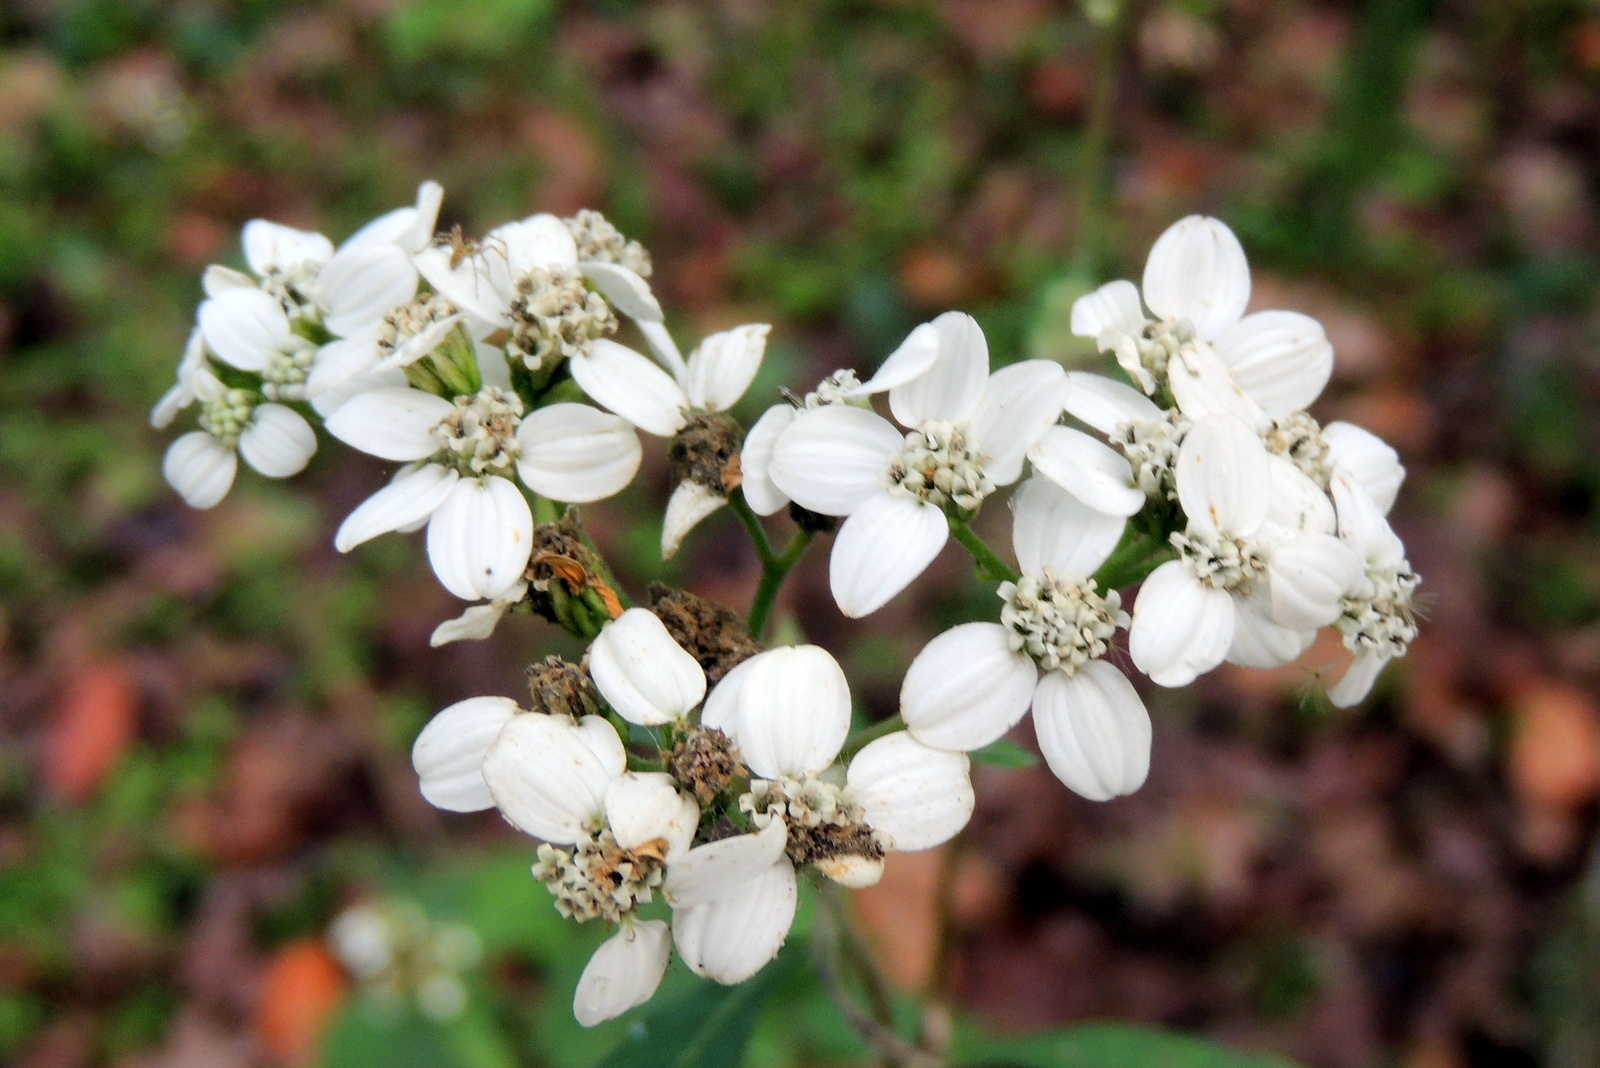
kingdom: Plantae
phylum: Tracheophyta
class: Magnoliopsida
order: Asterales
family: Asteraceae
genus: Verbesina
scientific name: Verbesina virginica
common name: Frostweed
